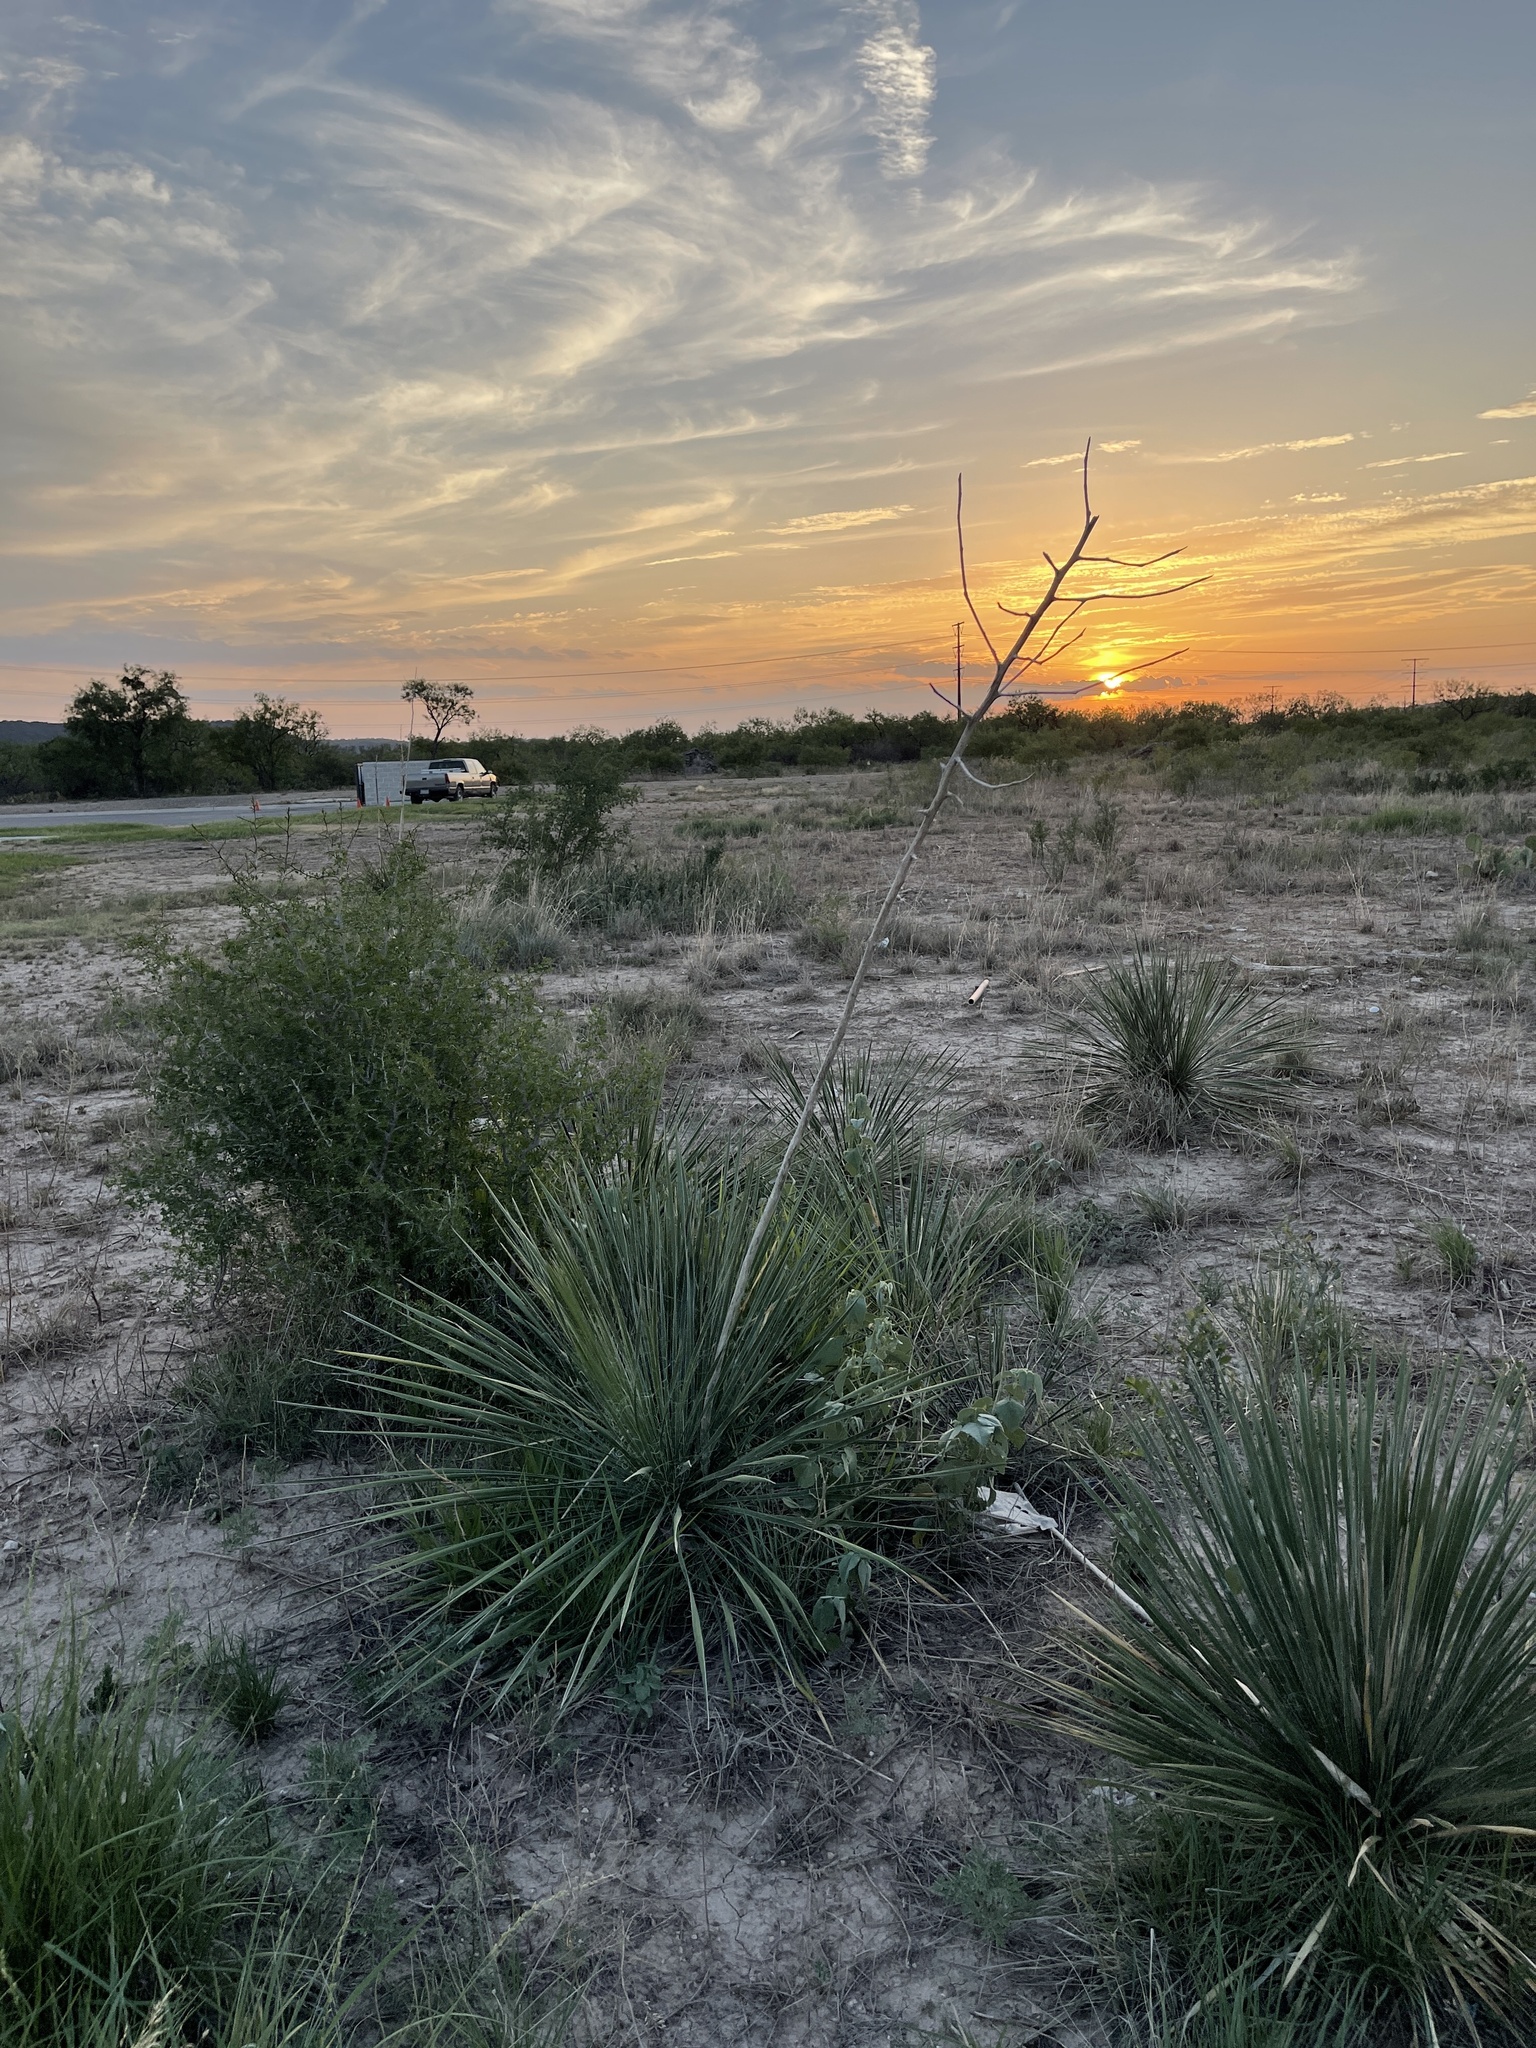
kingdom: Plantae
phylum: Tracheophyta
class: Liliopsida
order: Asparagales
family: Asparagaceae
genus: Yucca
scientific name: Yucca constricta
